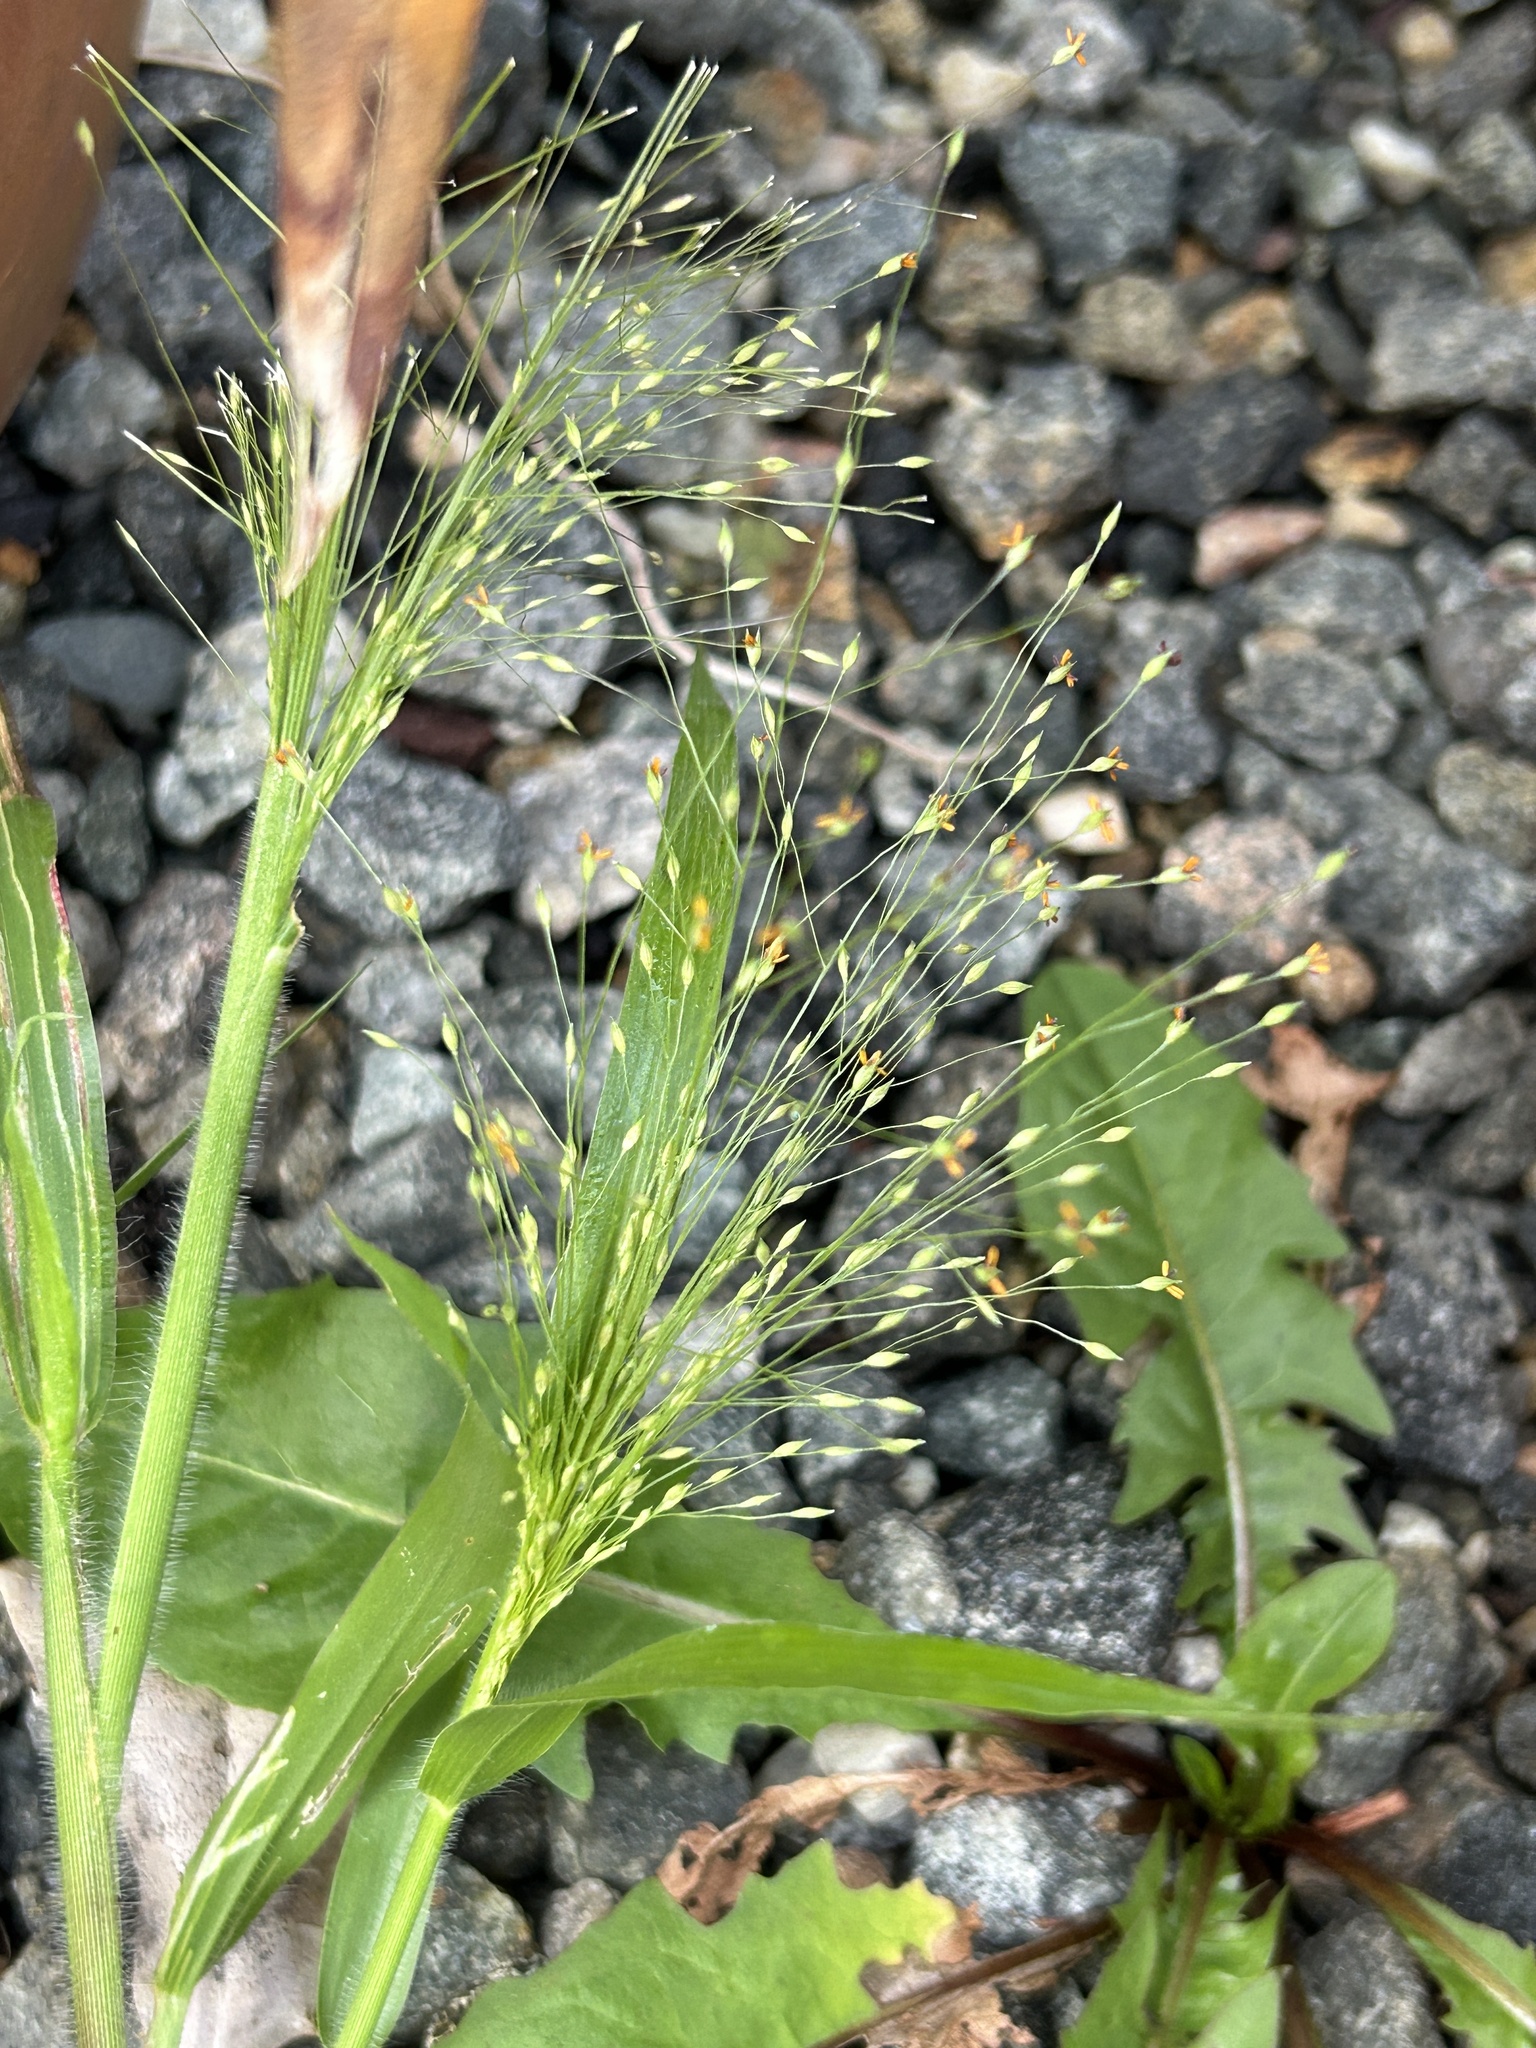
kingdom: Plantae
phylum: Tracheophyta
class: Liliopsida
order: Poales
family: Poaceae
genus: Panicum
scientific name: Panicum capillare
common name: Witch-grass
